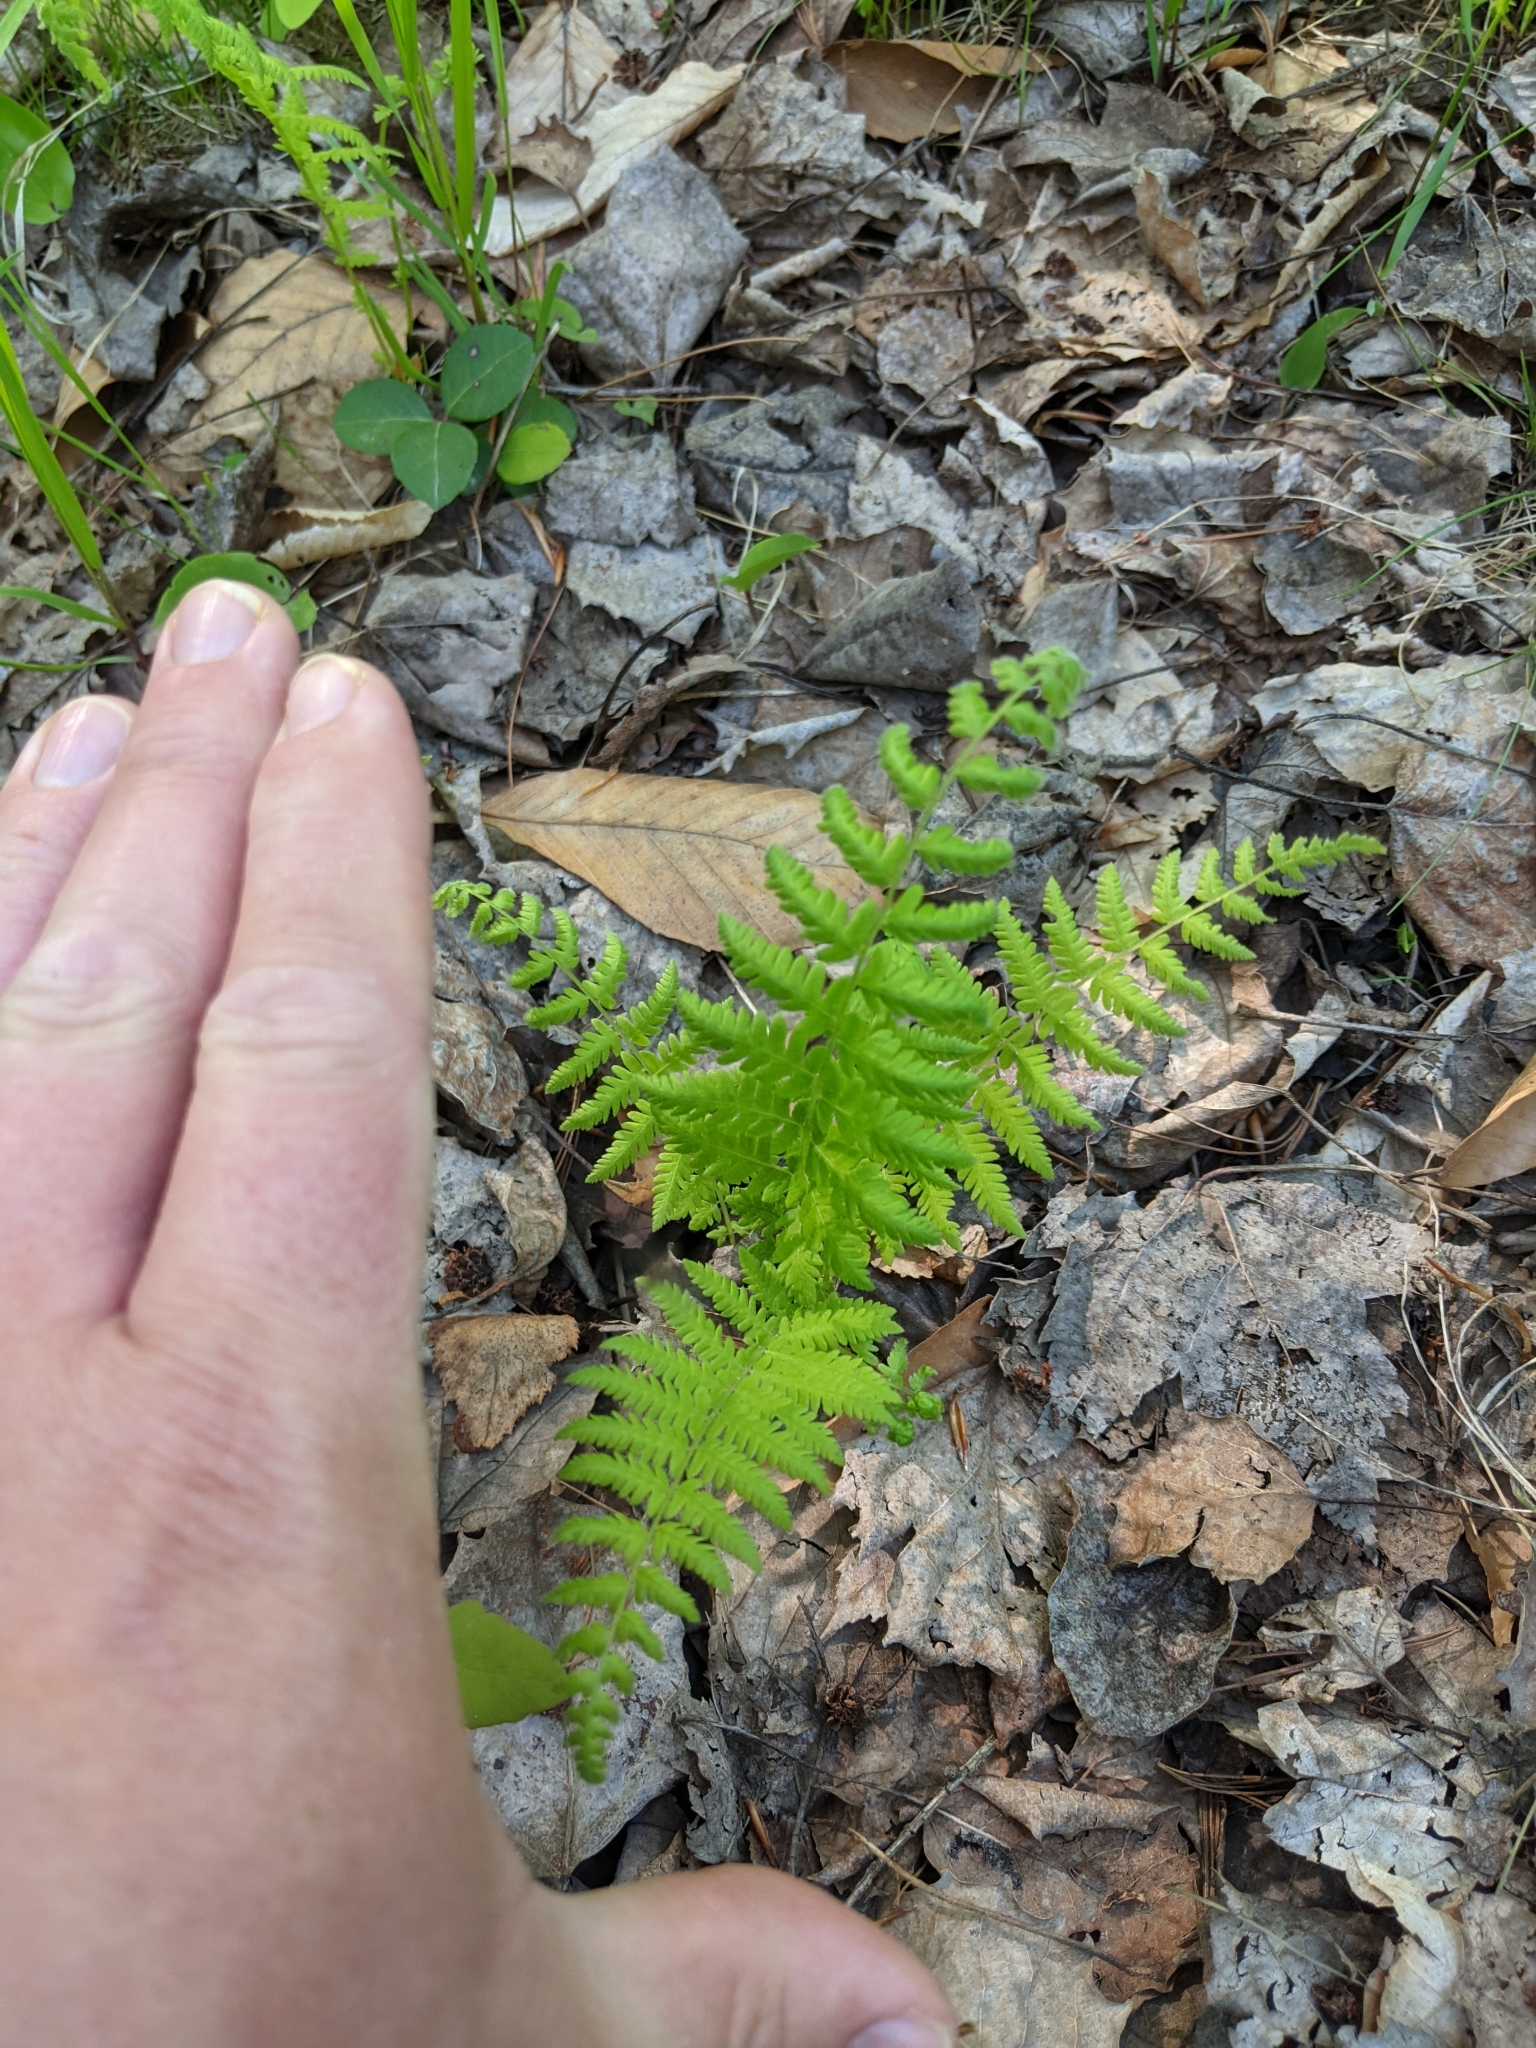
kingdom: Plantae
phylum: Tracheophyta
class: Polypodiopsida
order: Polypodiales
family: Thelypteridaceae
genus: Amauropelta
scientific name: Amauropelta noveboracensis
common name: New york fern
